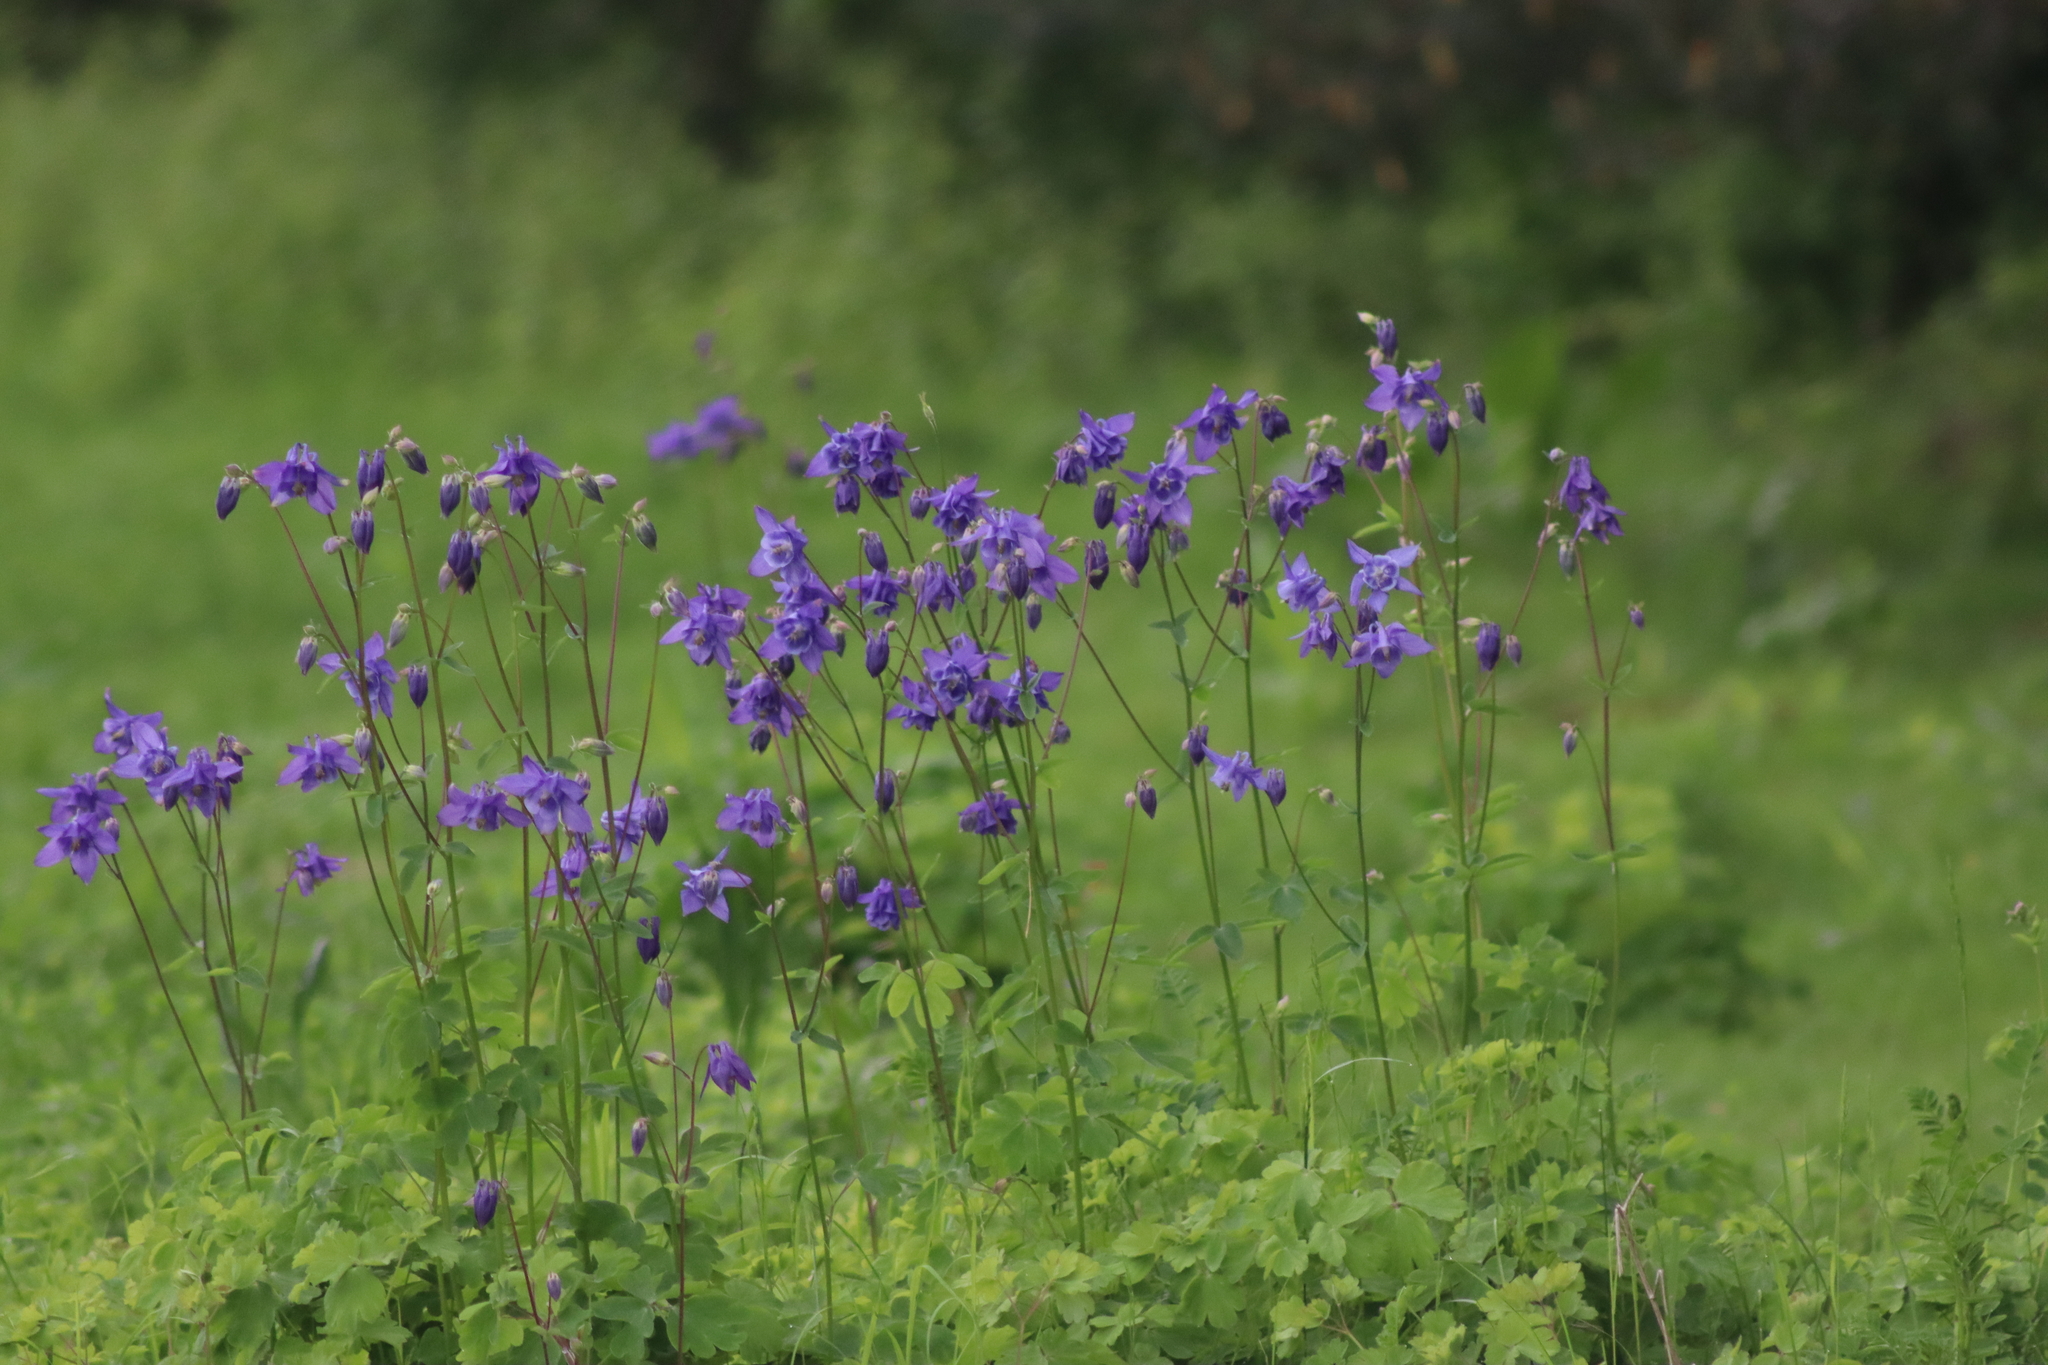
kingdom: Plantae
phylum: Tracheophyta
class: Magnoliopsida
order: Ranunculales
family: Ranunculaceae
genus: Aquilegia
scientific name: Aquilegia vulgaris
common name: Columbine
